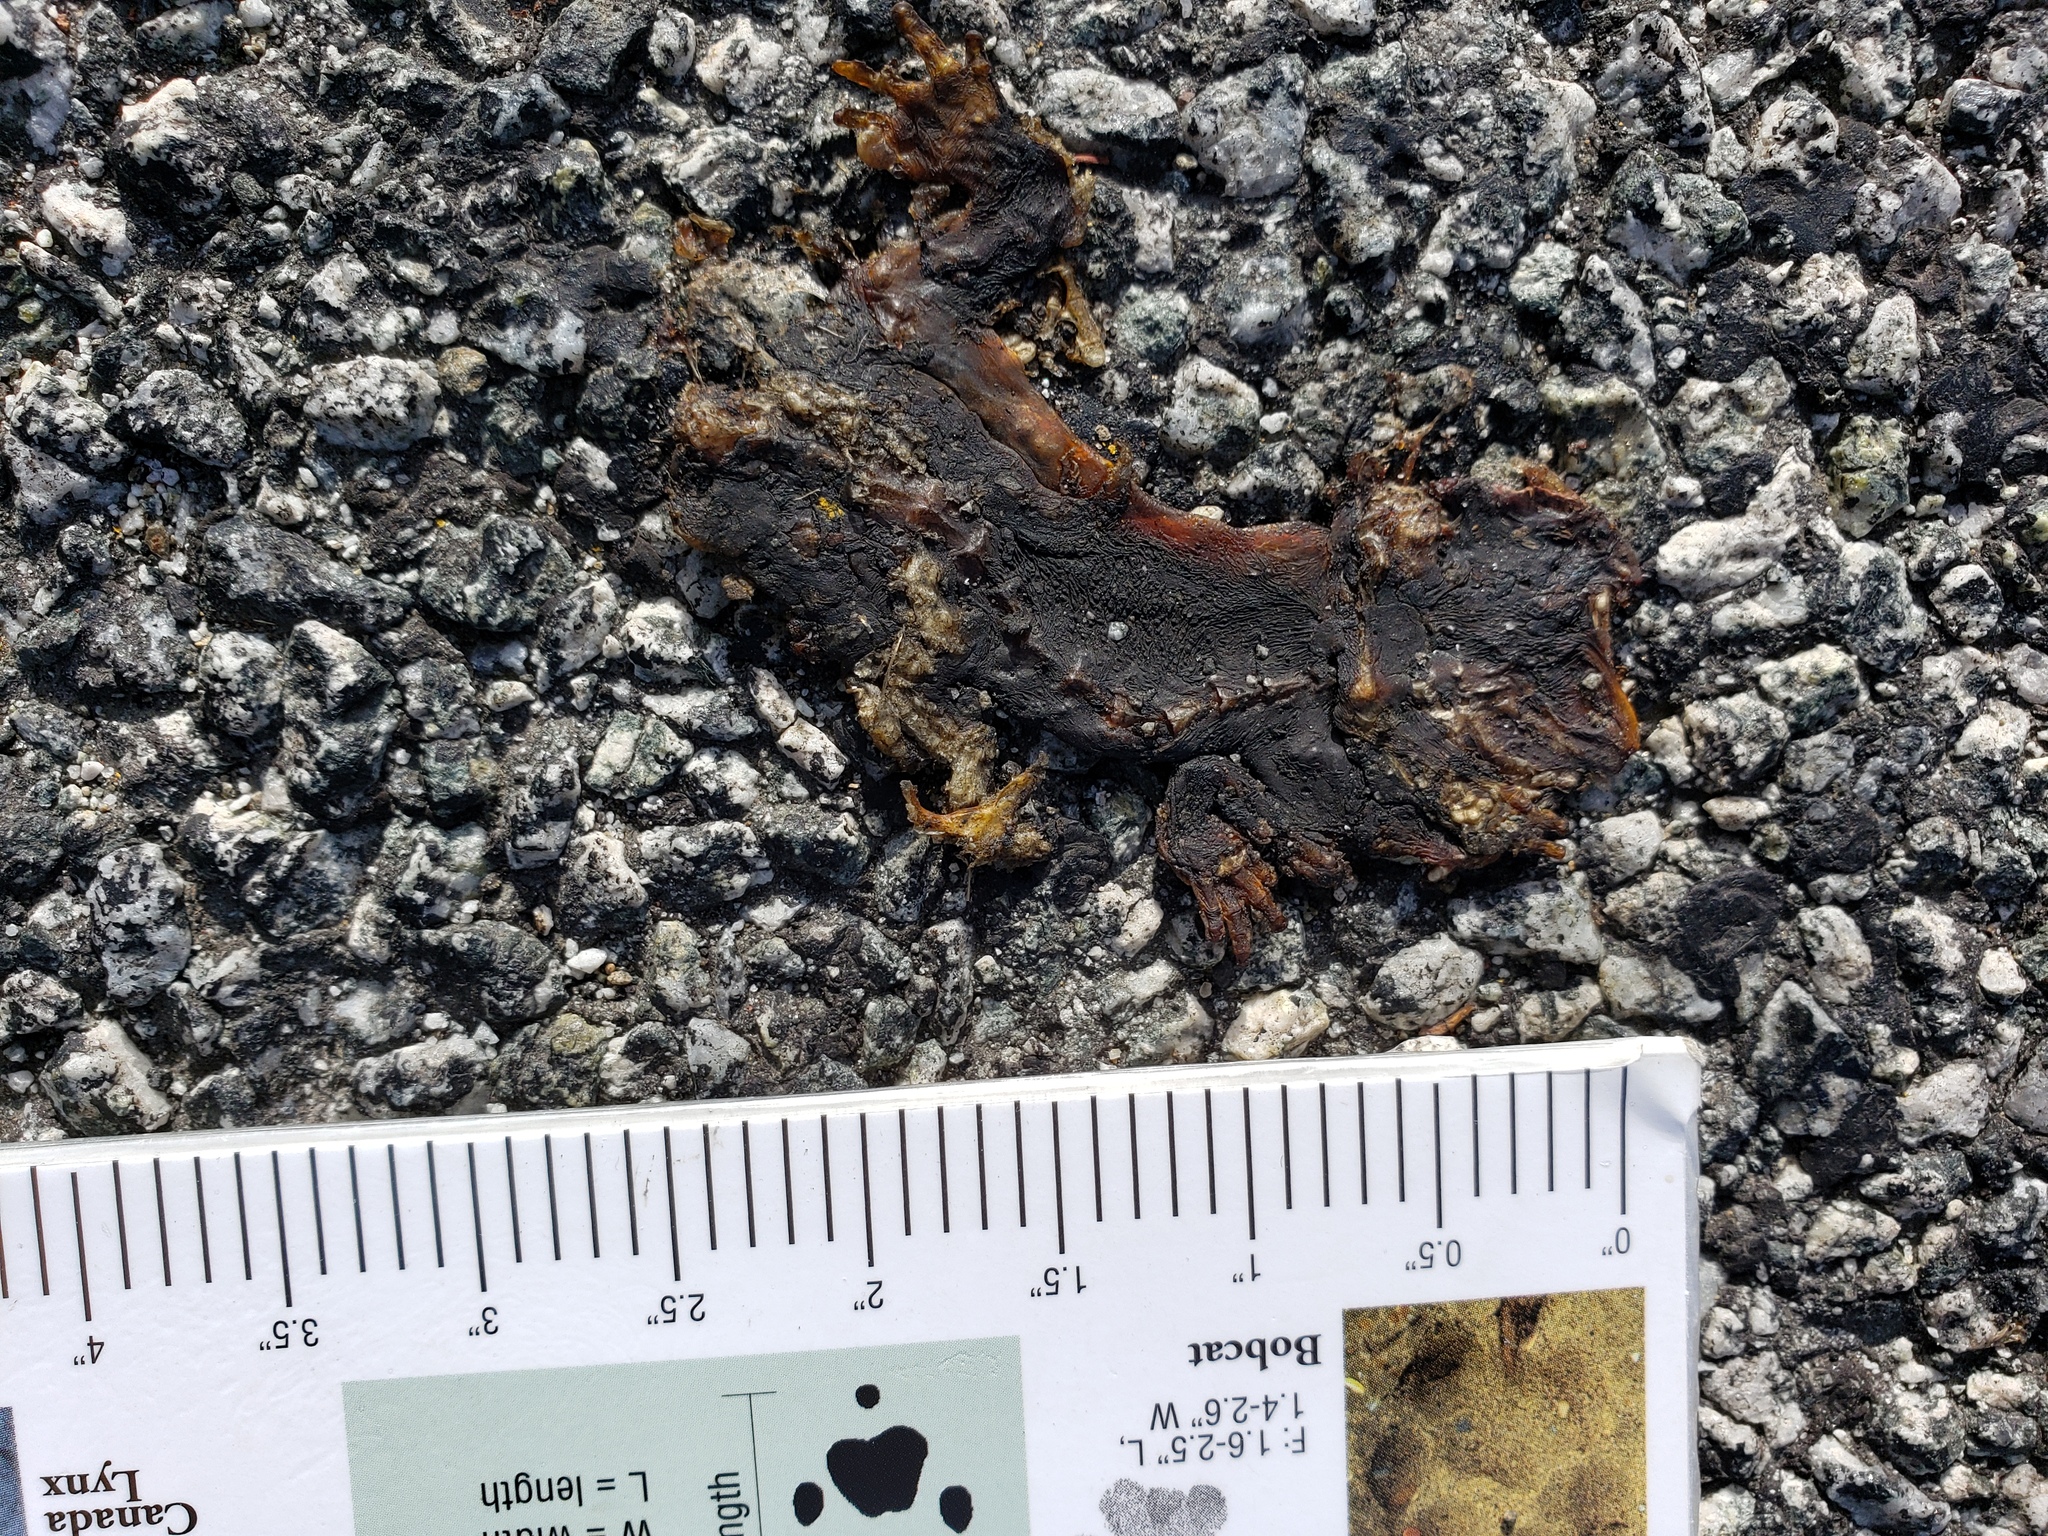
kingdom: Animalia
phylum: Chordata
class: Amphibia
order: Caudata
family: Salamandridae
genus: Taricha
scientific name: Taricha
